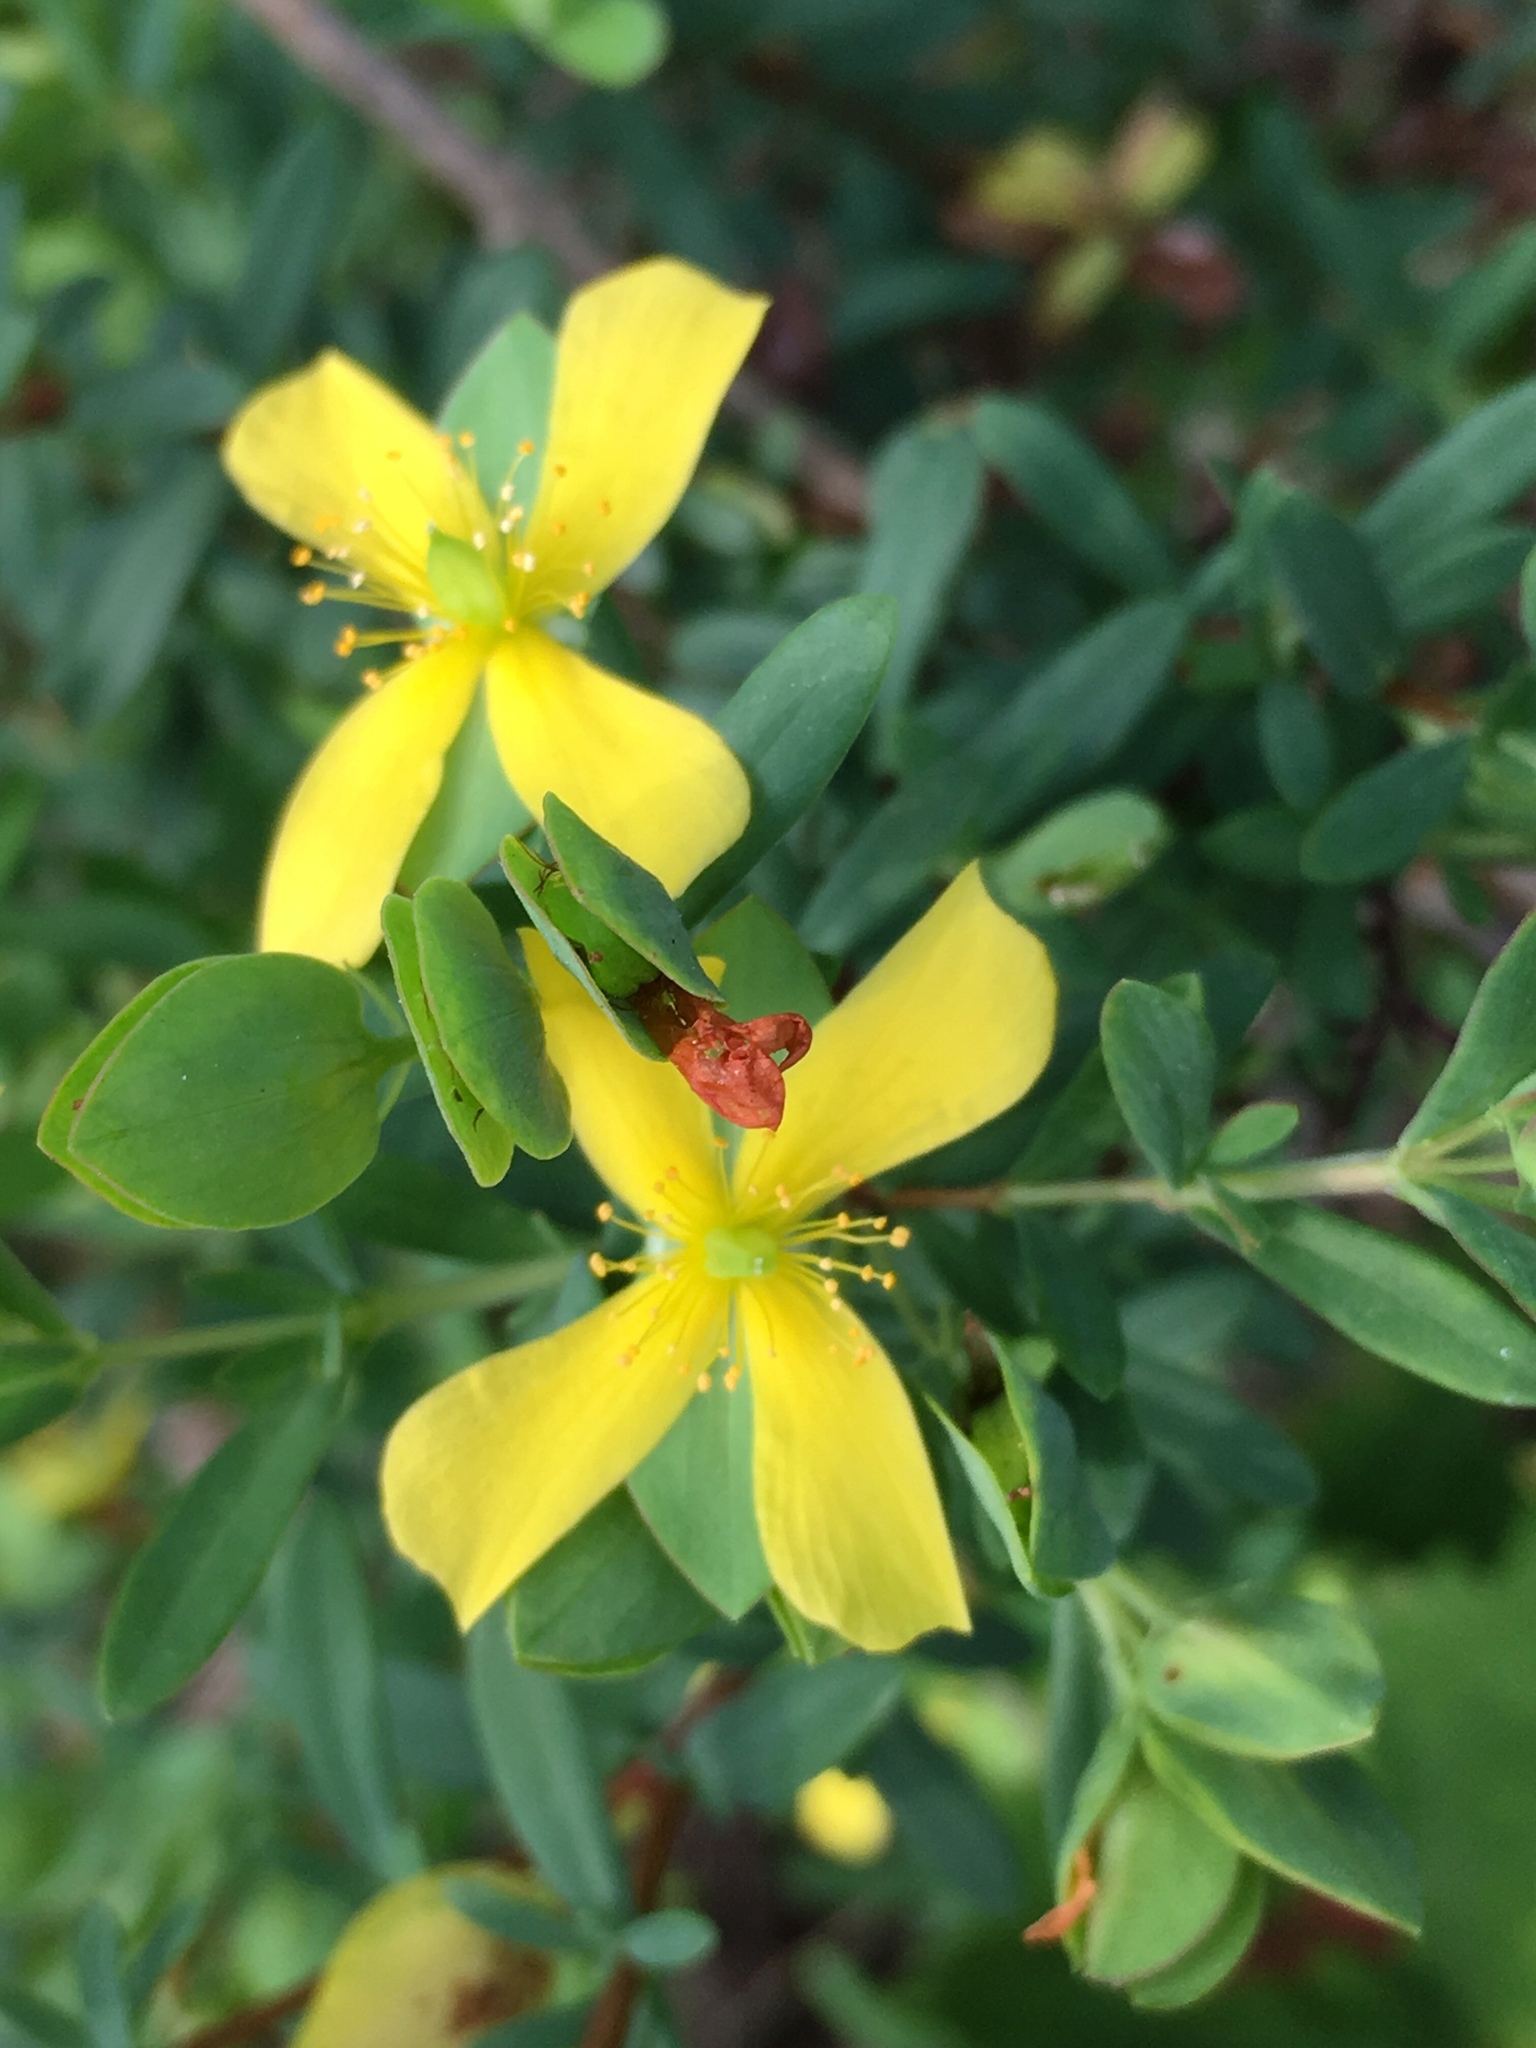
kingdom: Plantae
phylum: Tracheophyta
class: Magnoliopsida
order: Malpighiales
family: Hypericaceae
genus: Hypericum
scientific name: Hypericum hypericoides
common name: St. andrew's cross
